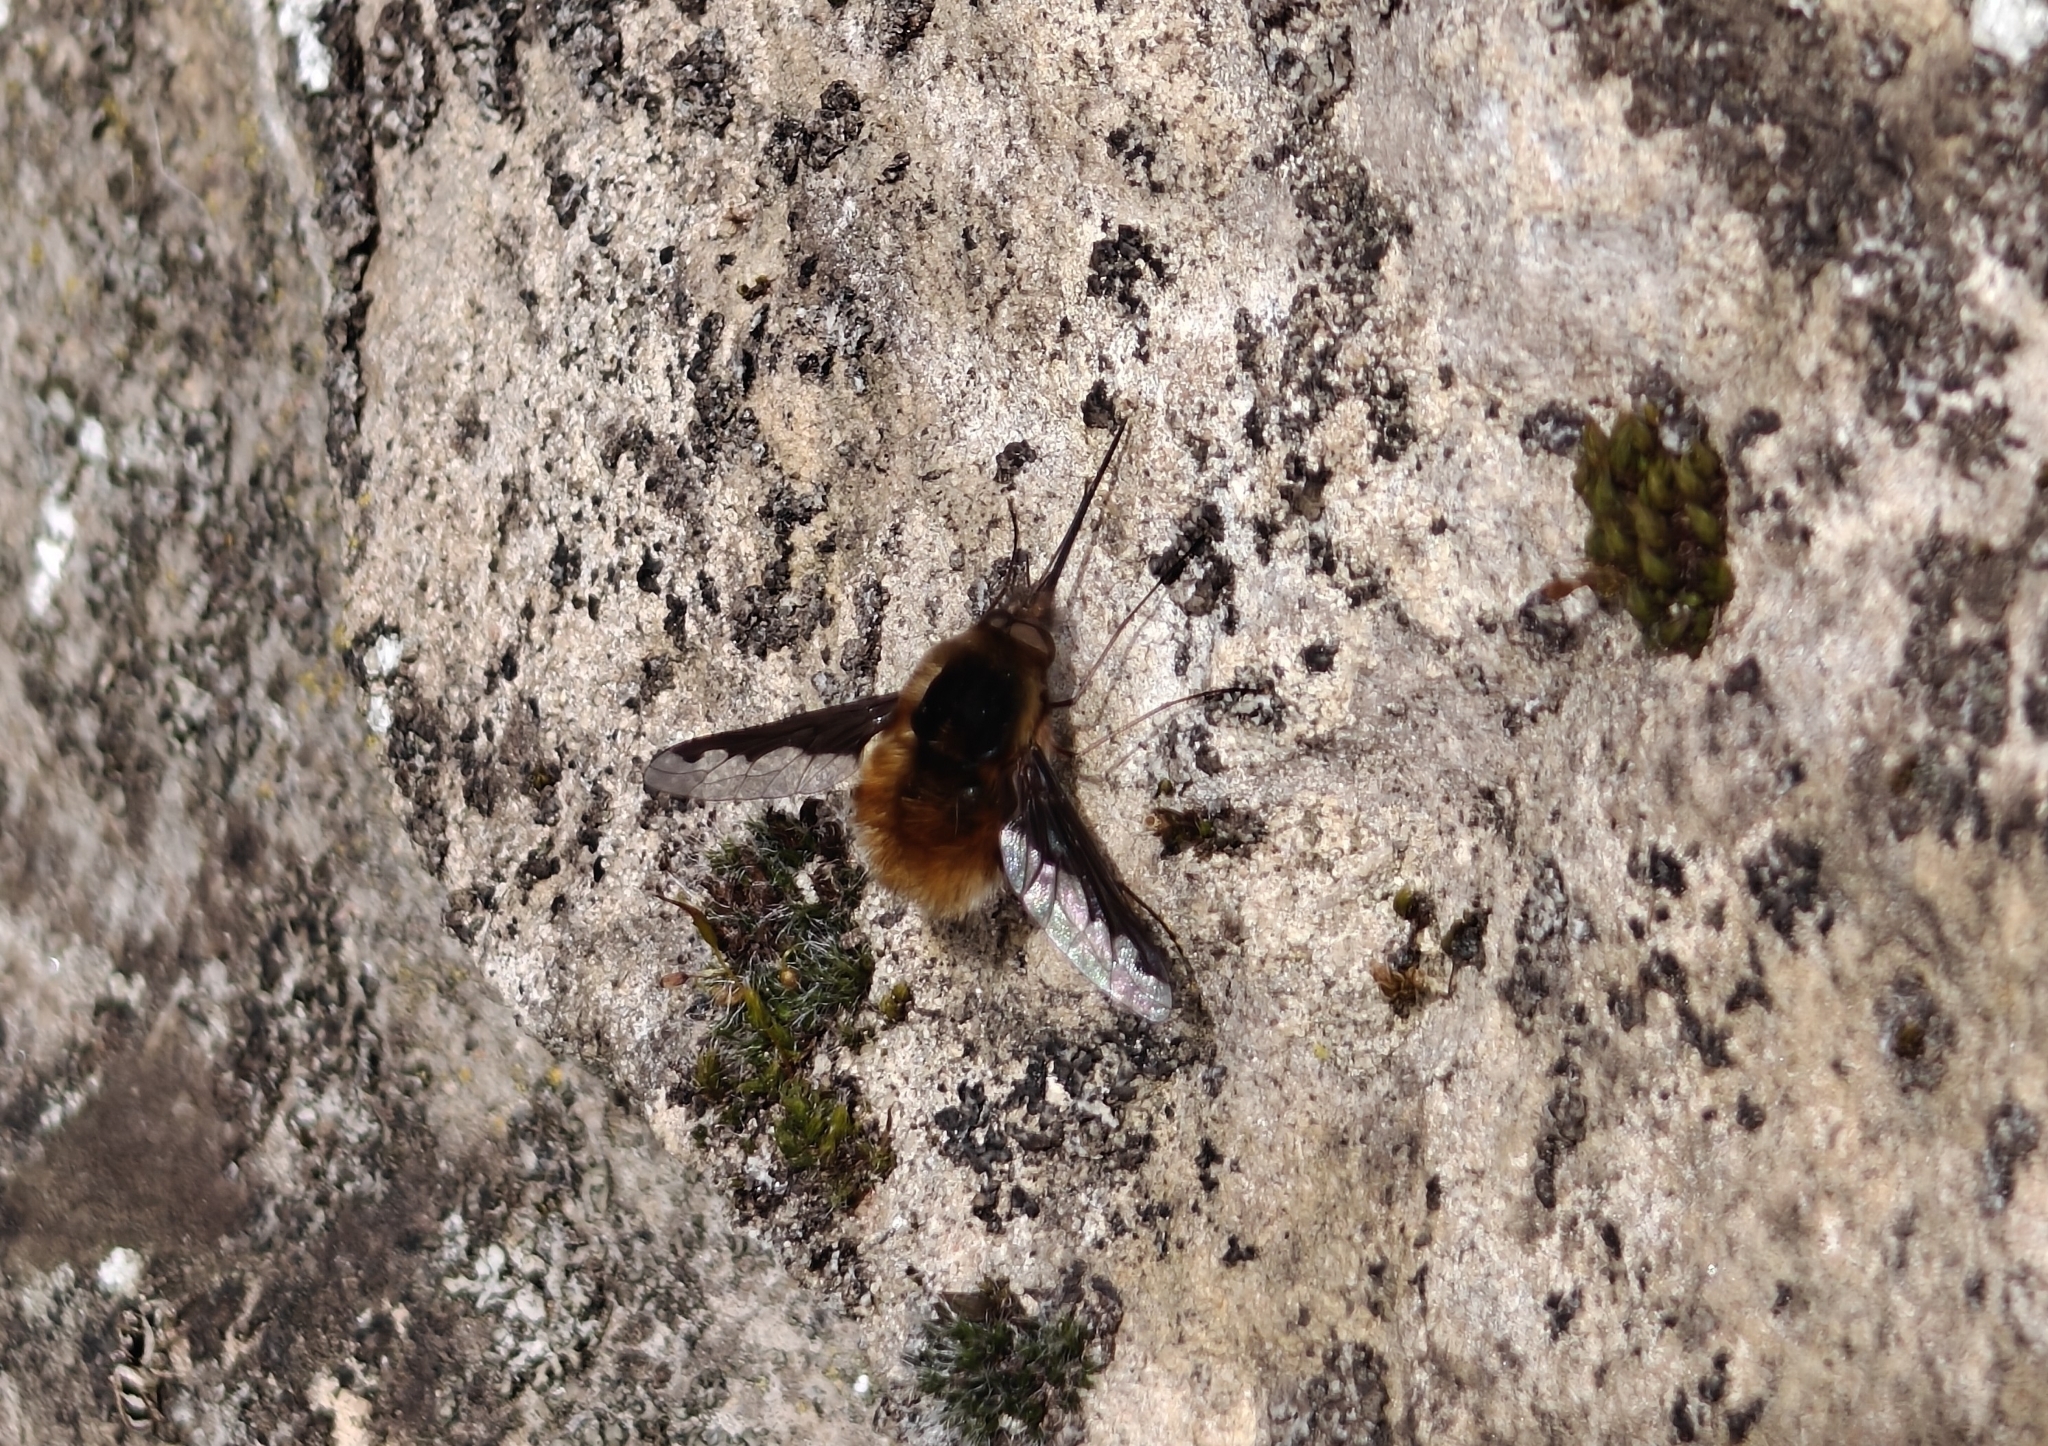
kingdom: Animalia
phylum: Arthropoda
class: Insecta
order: Diptera
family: Bombyliidae
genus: Bombylius
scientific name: Bombylius major
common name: Bee fly
